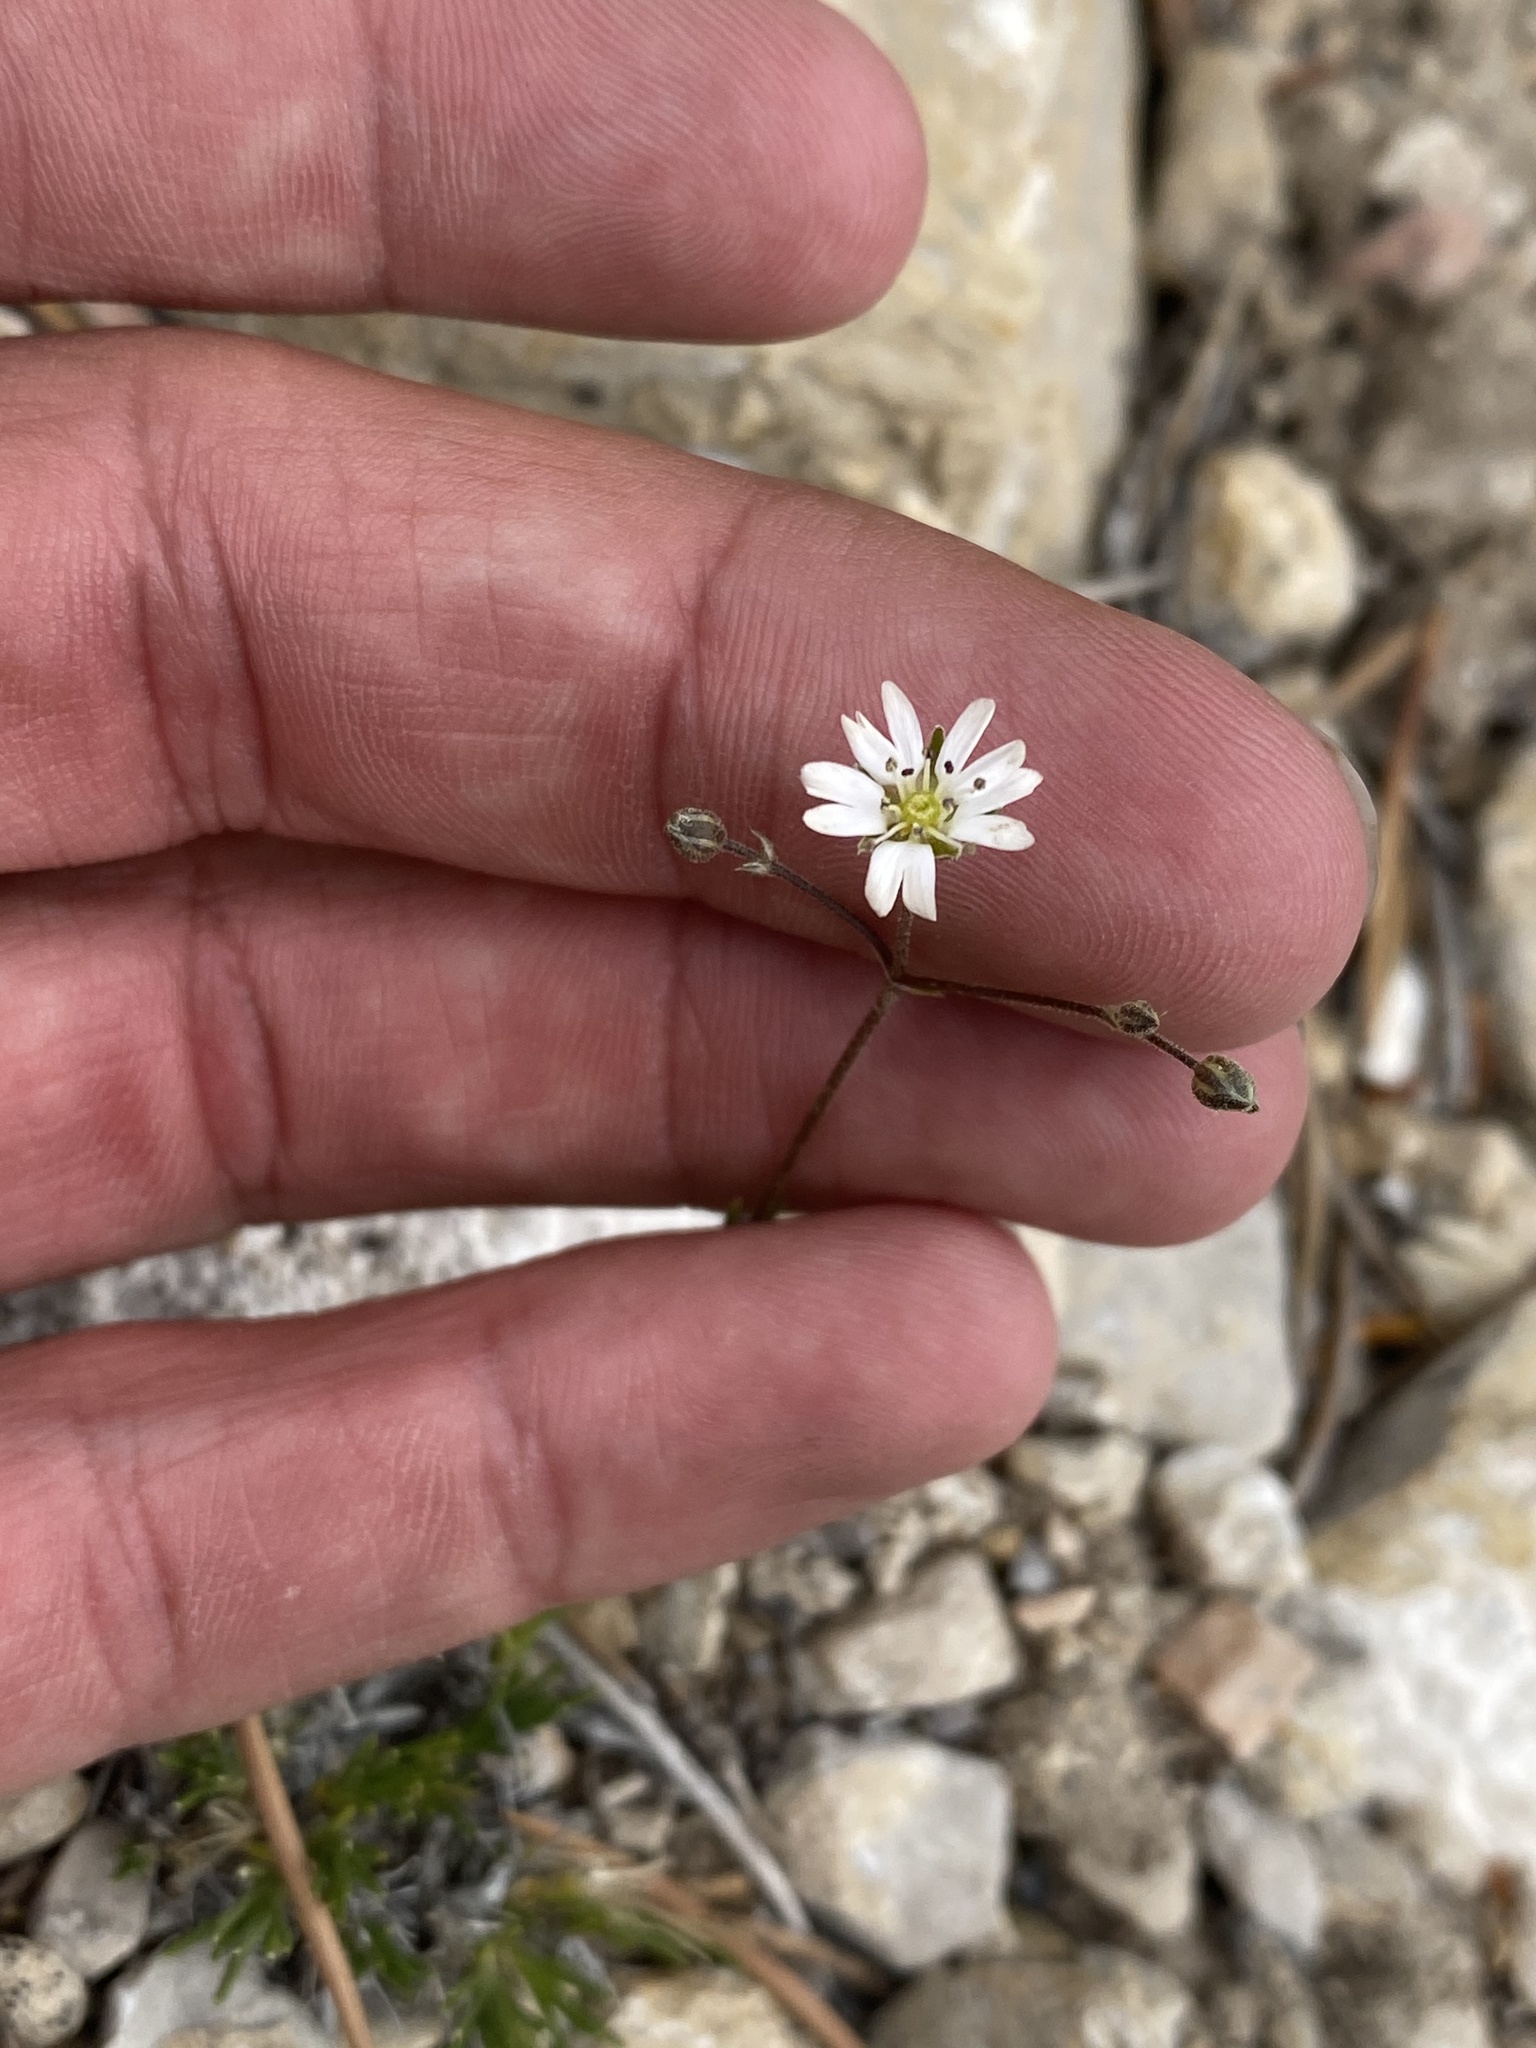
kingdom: Plantae
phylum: Tracheophyta
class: Magnoliopsida
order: Caryophyllales
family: Caryophyllaceae
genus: Eremogone
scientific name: Eremogone kingii
